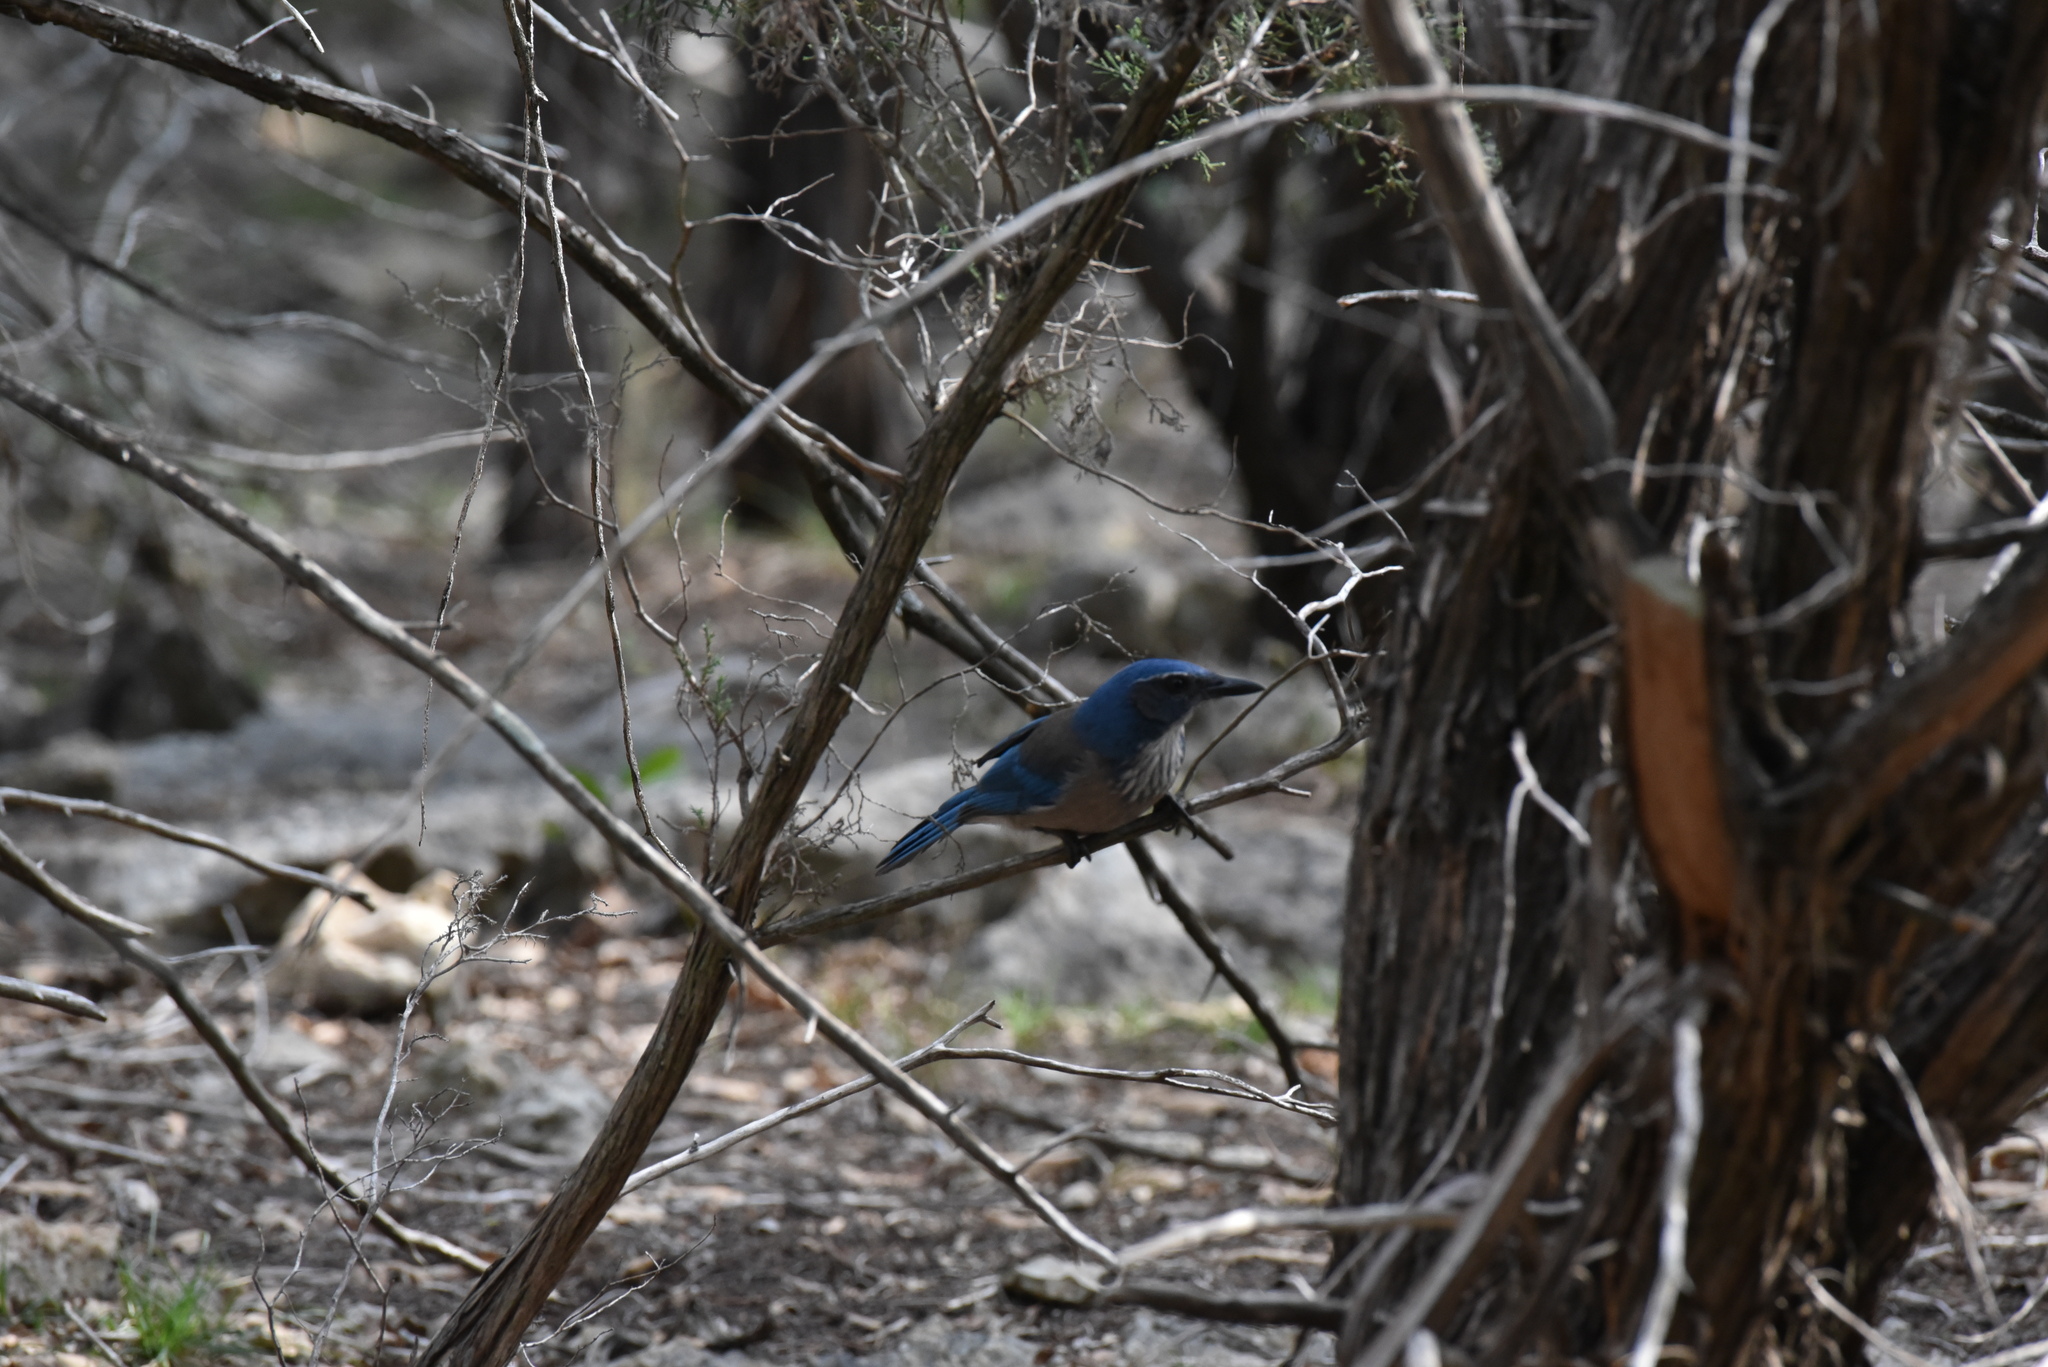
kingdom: Animalia
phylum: Chordata
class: Aves
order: Passeriformes
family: Corvidae
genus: Aphelocoma
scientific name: Aphelocoma woodhouseii
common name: Woodhouse's scrub-jay
